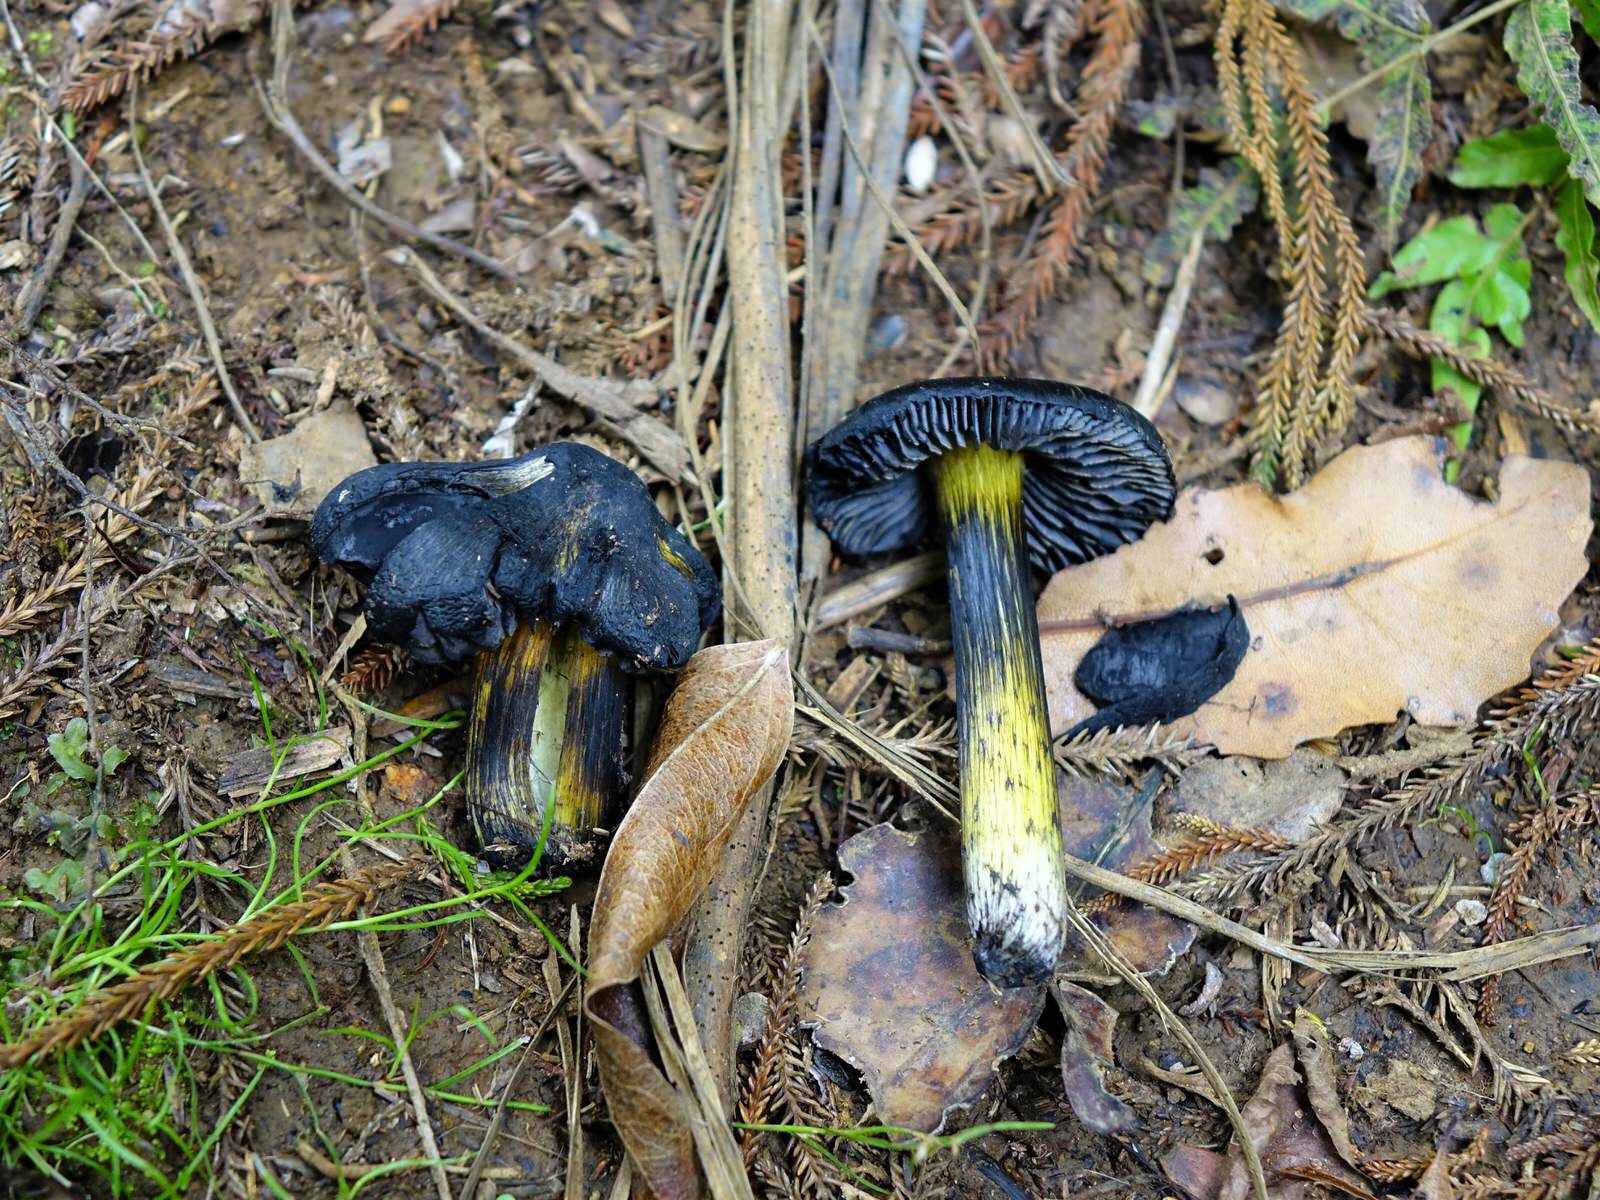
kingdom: Fungi
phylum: Basidiomycota
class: Agaricomycetes
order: Agaricales
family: Hygrophoraceae
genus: Hygrocybe
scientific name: Hygrocybe astatogala
